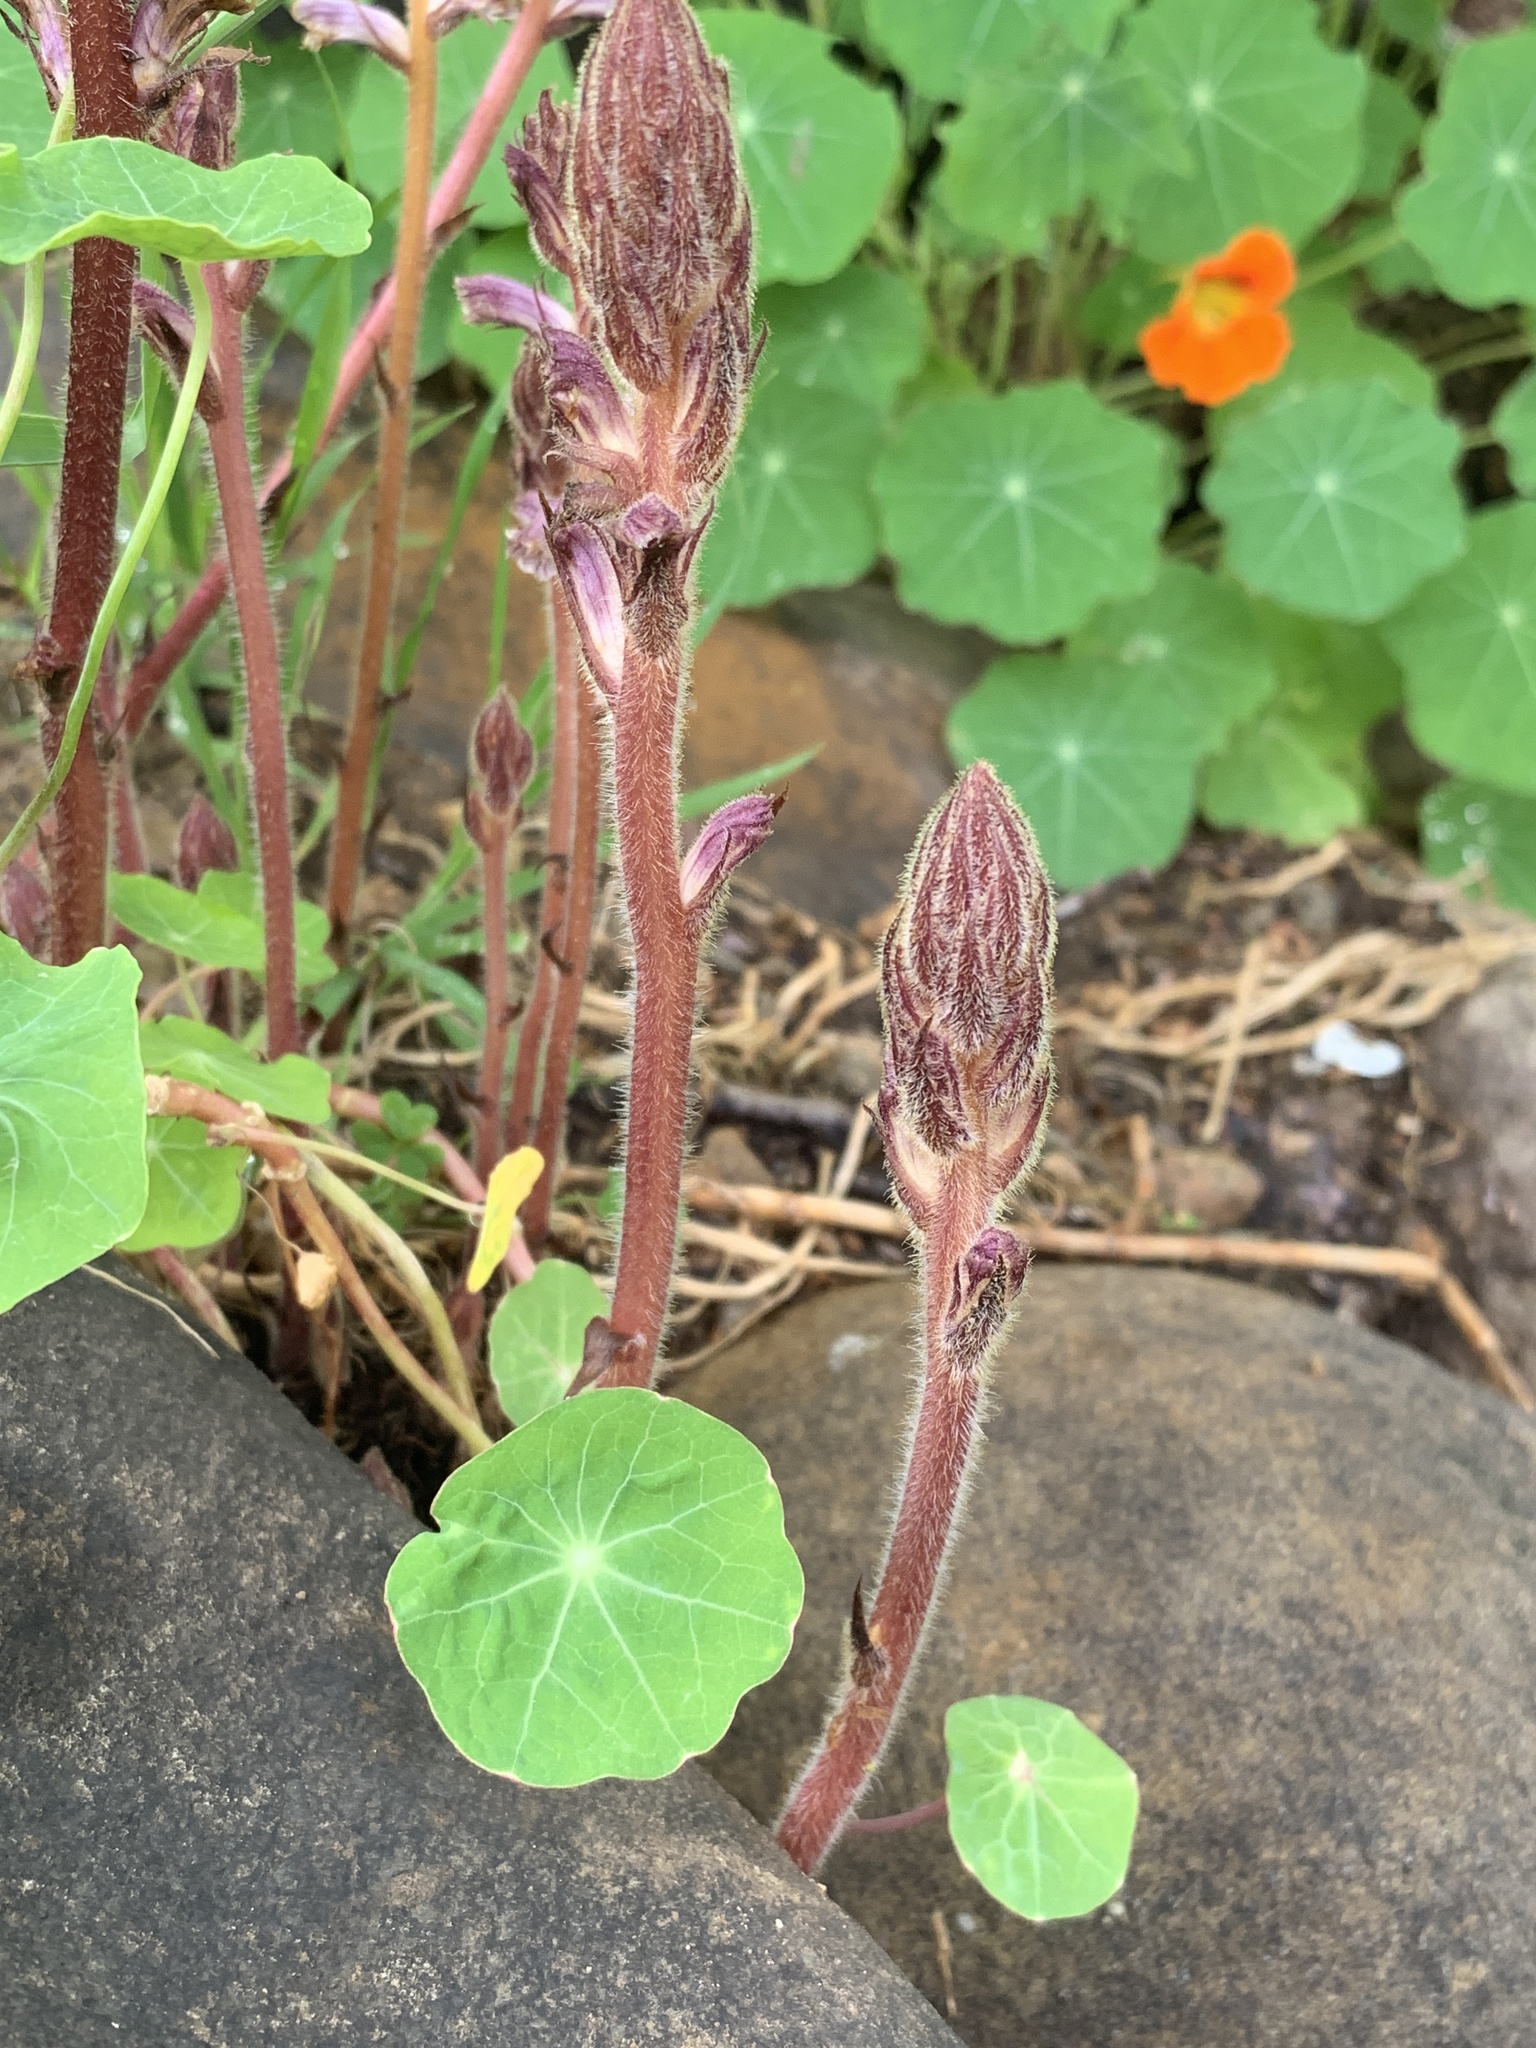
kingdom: Plantae
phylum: Tracheophyta
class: Magnoliopsida
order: Lamiales
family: Orobanchaceae
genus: Orobanche
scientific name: Orobanche minor
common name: Common broomrape
